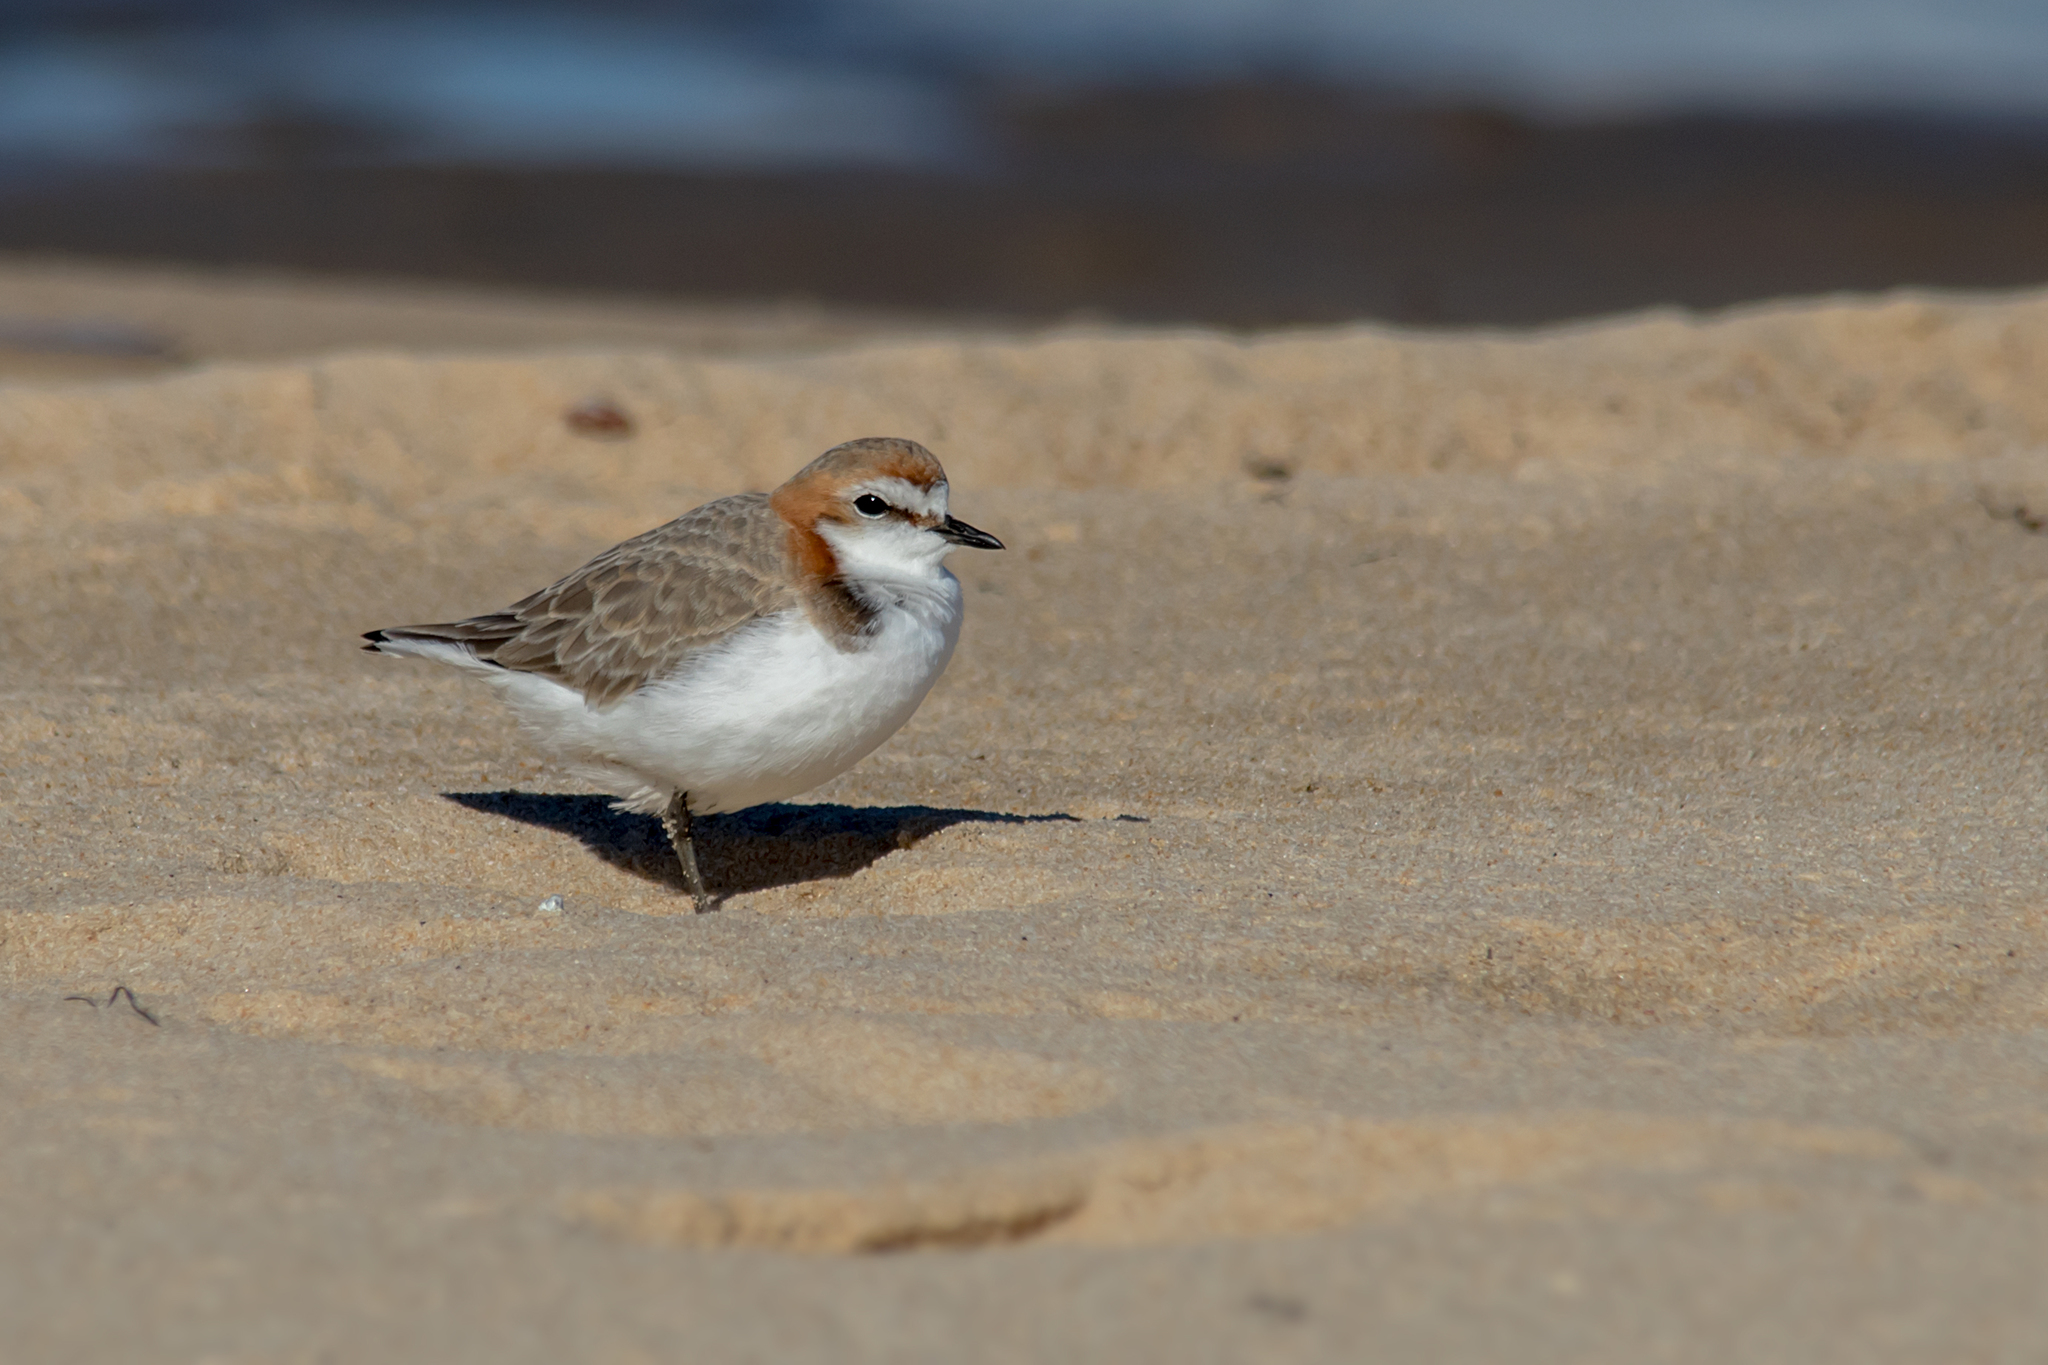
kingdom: Animalia
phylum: Chordata
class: Aves
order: Charadriiformes
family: Charadriidae
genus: Anarhynchus
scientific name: Anarhynchus
